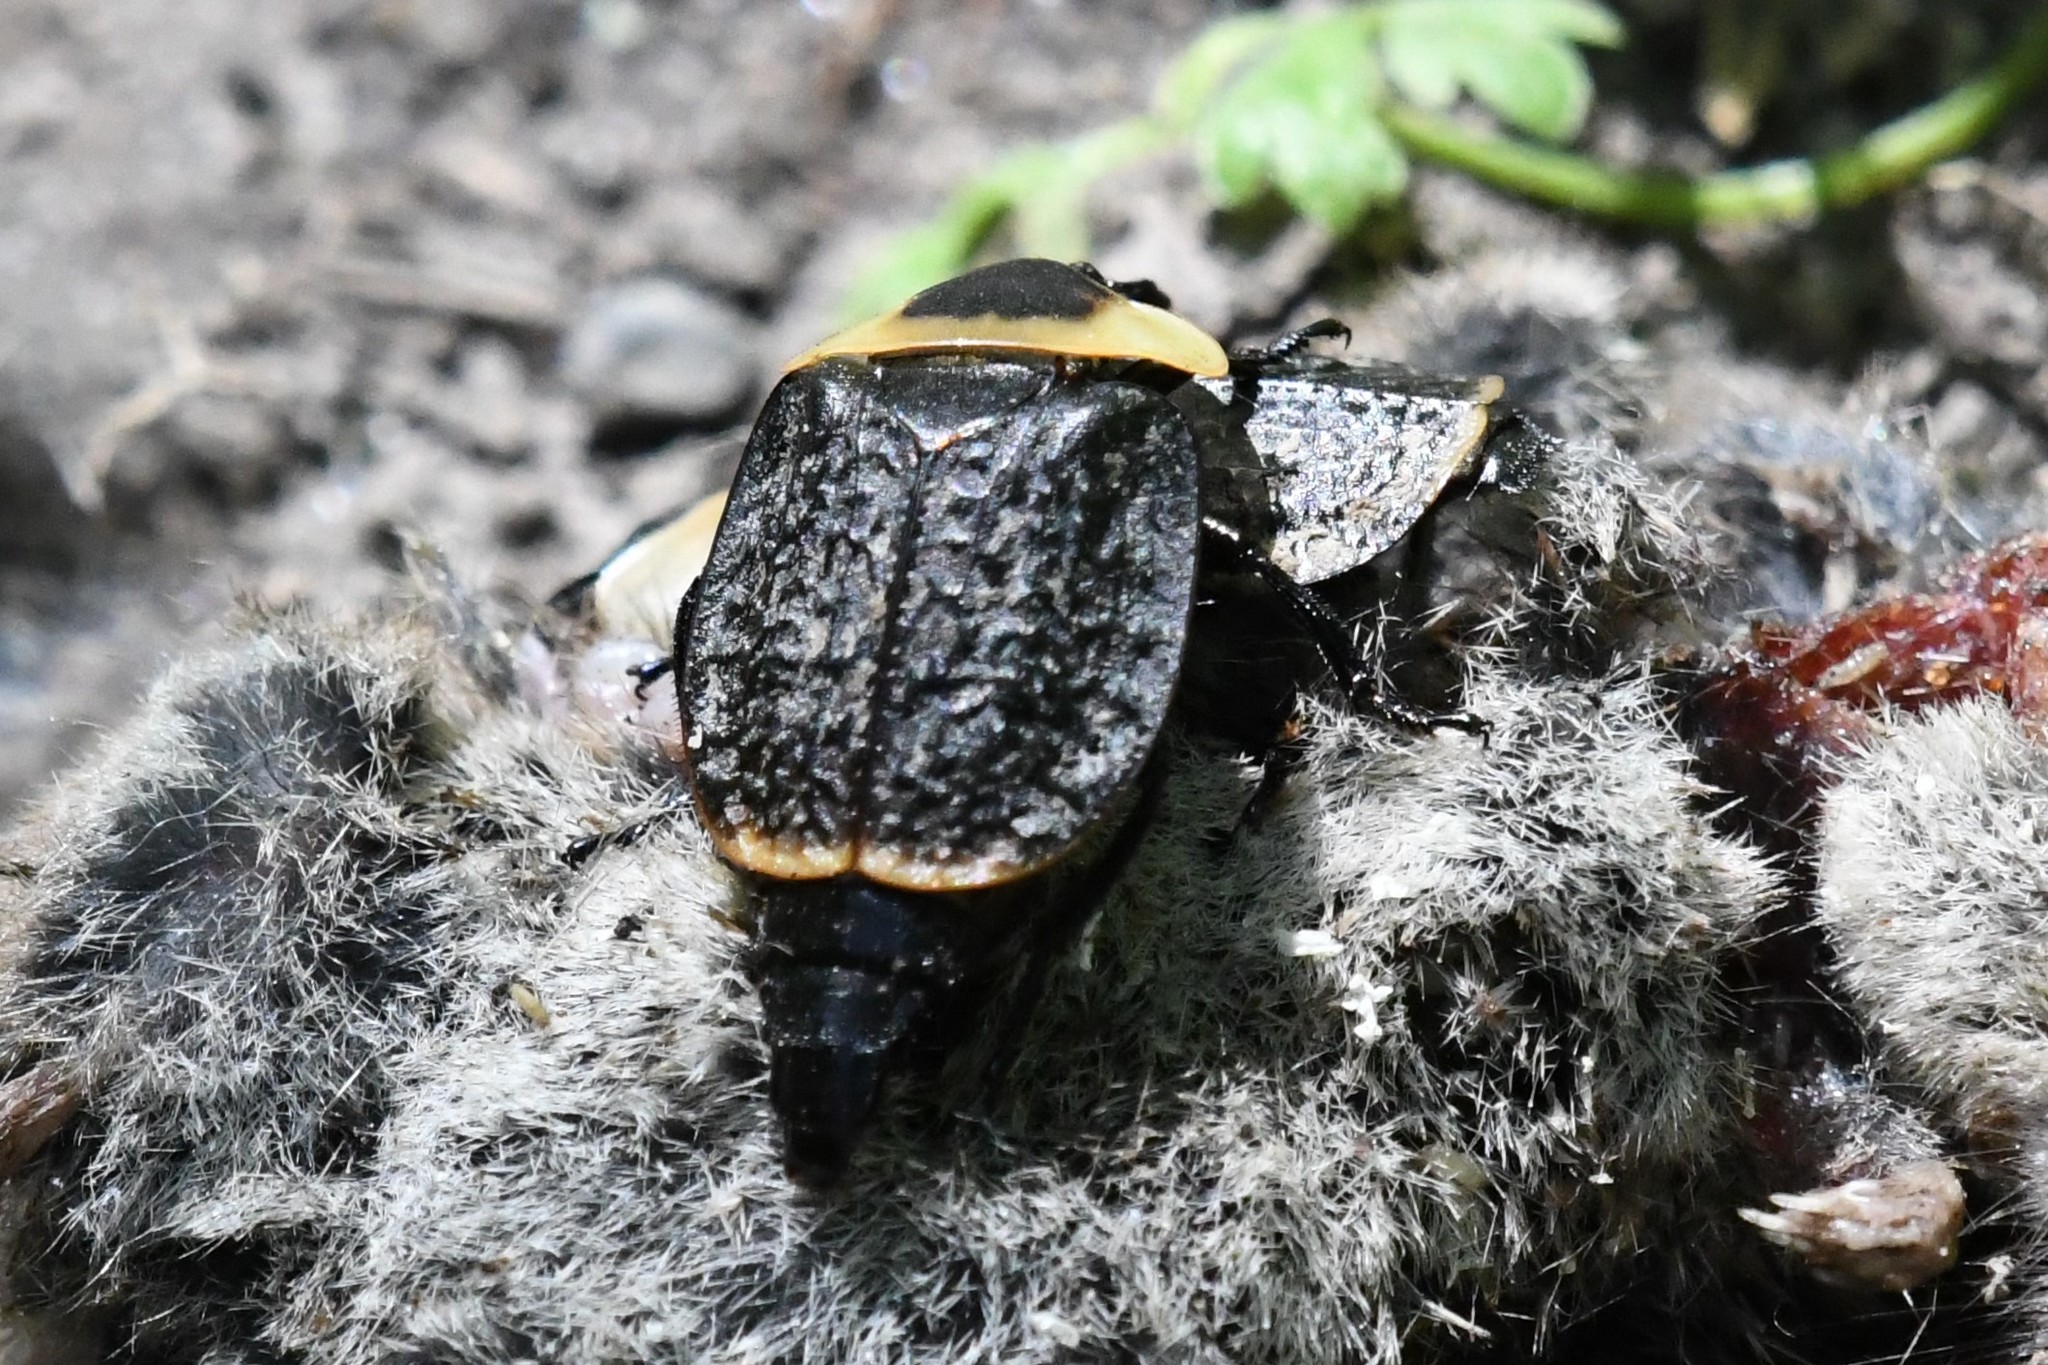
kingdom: Animalia
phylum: Arthropoda
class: Insecta
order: Coleoptera
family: Staphylinidae
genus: Necrophila
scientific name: Necrophila americana
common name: American carrion beetle
